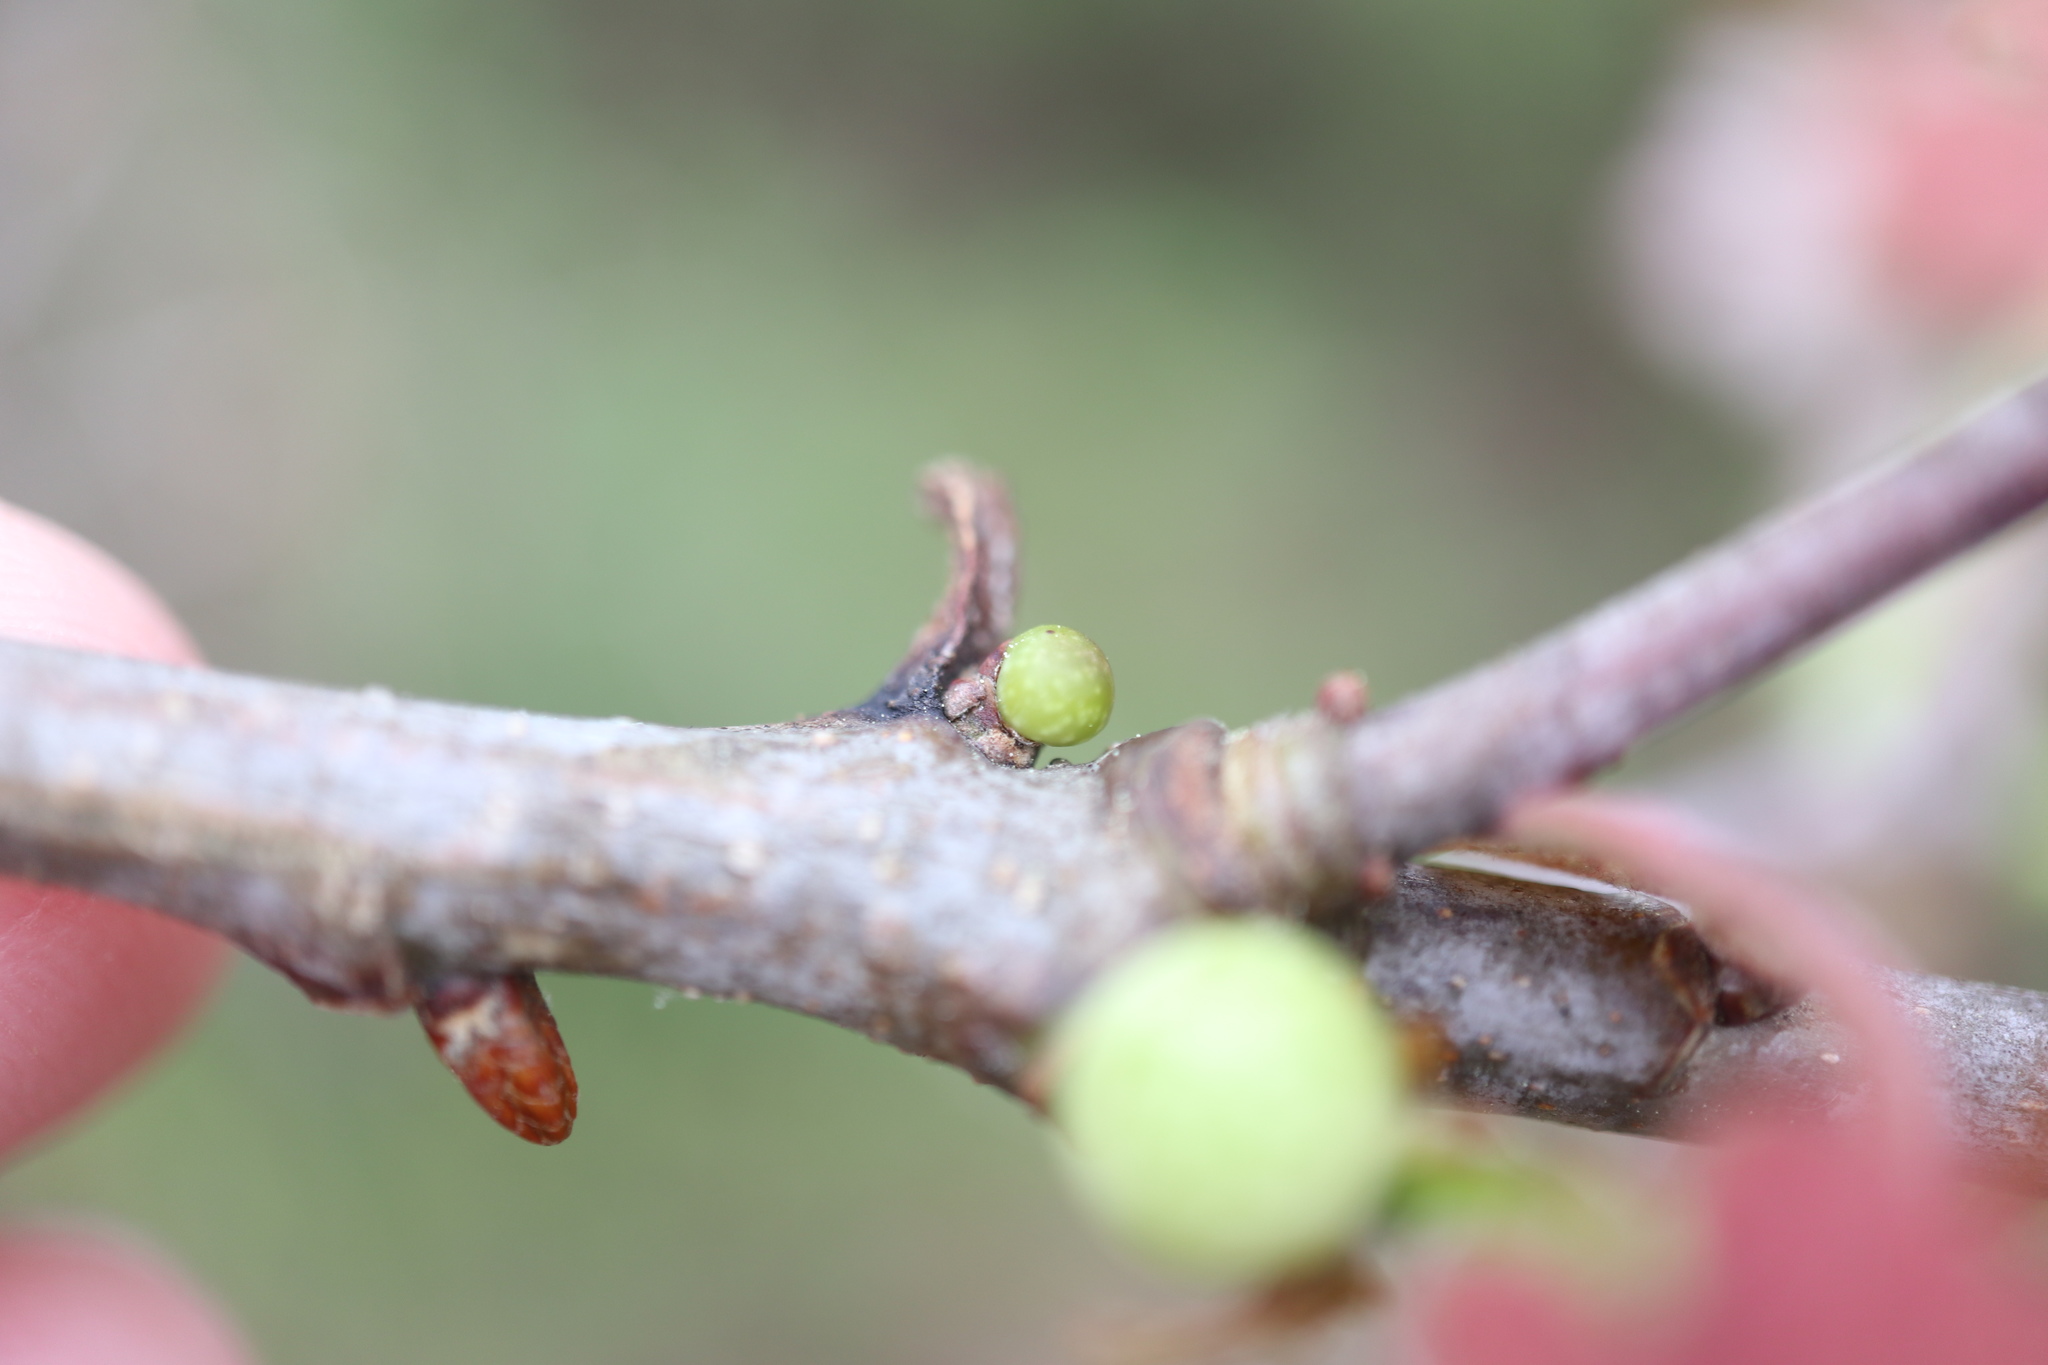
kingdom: Animalia
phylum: Arthropoda
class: Insecta
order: Hymenoptera
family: Cynipidae
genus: Andricus
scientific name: Andricus
